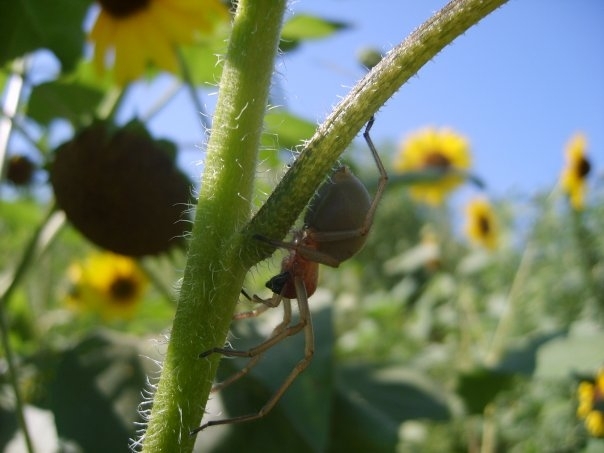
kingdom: Animalia
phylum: Arthropoda
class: Arachnida
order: Araneae
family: Cheiracanthiidae
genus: Cheiracanthium
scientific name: Cheiracanthium punctorium
